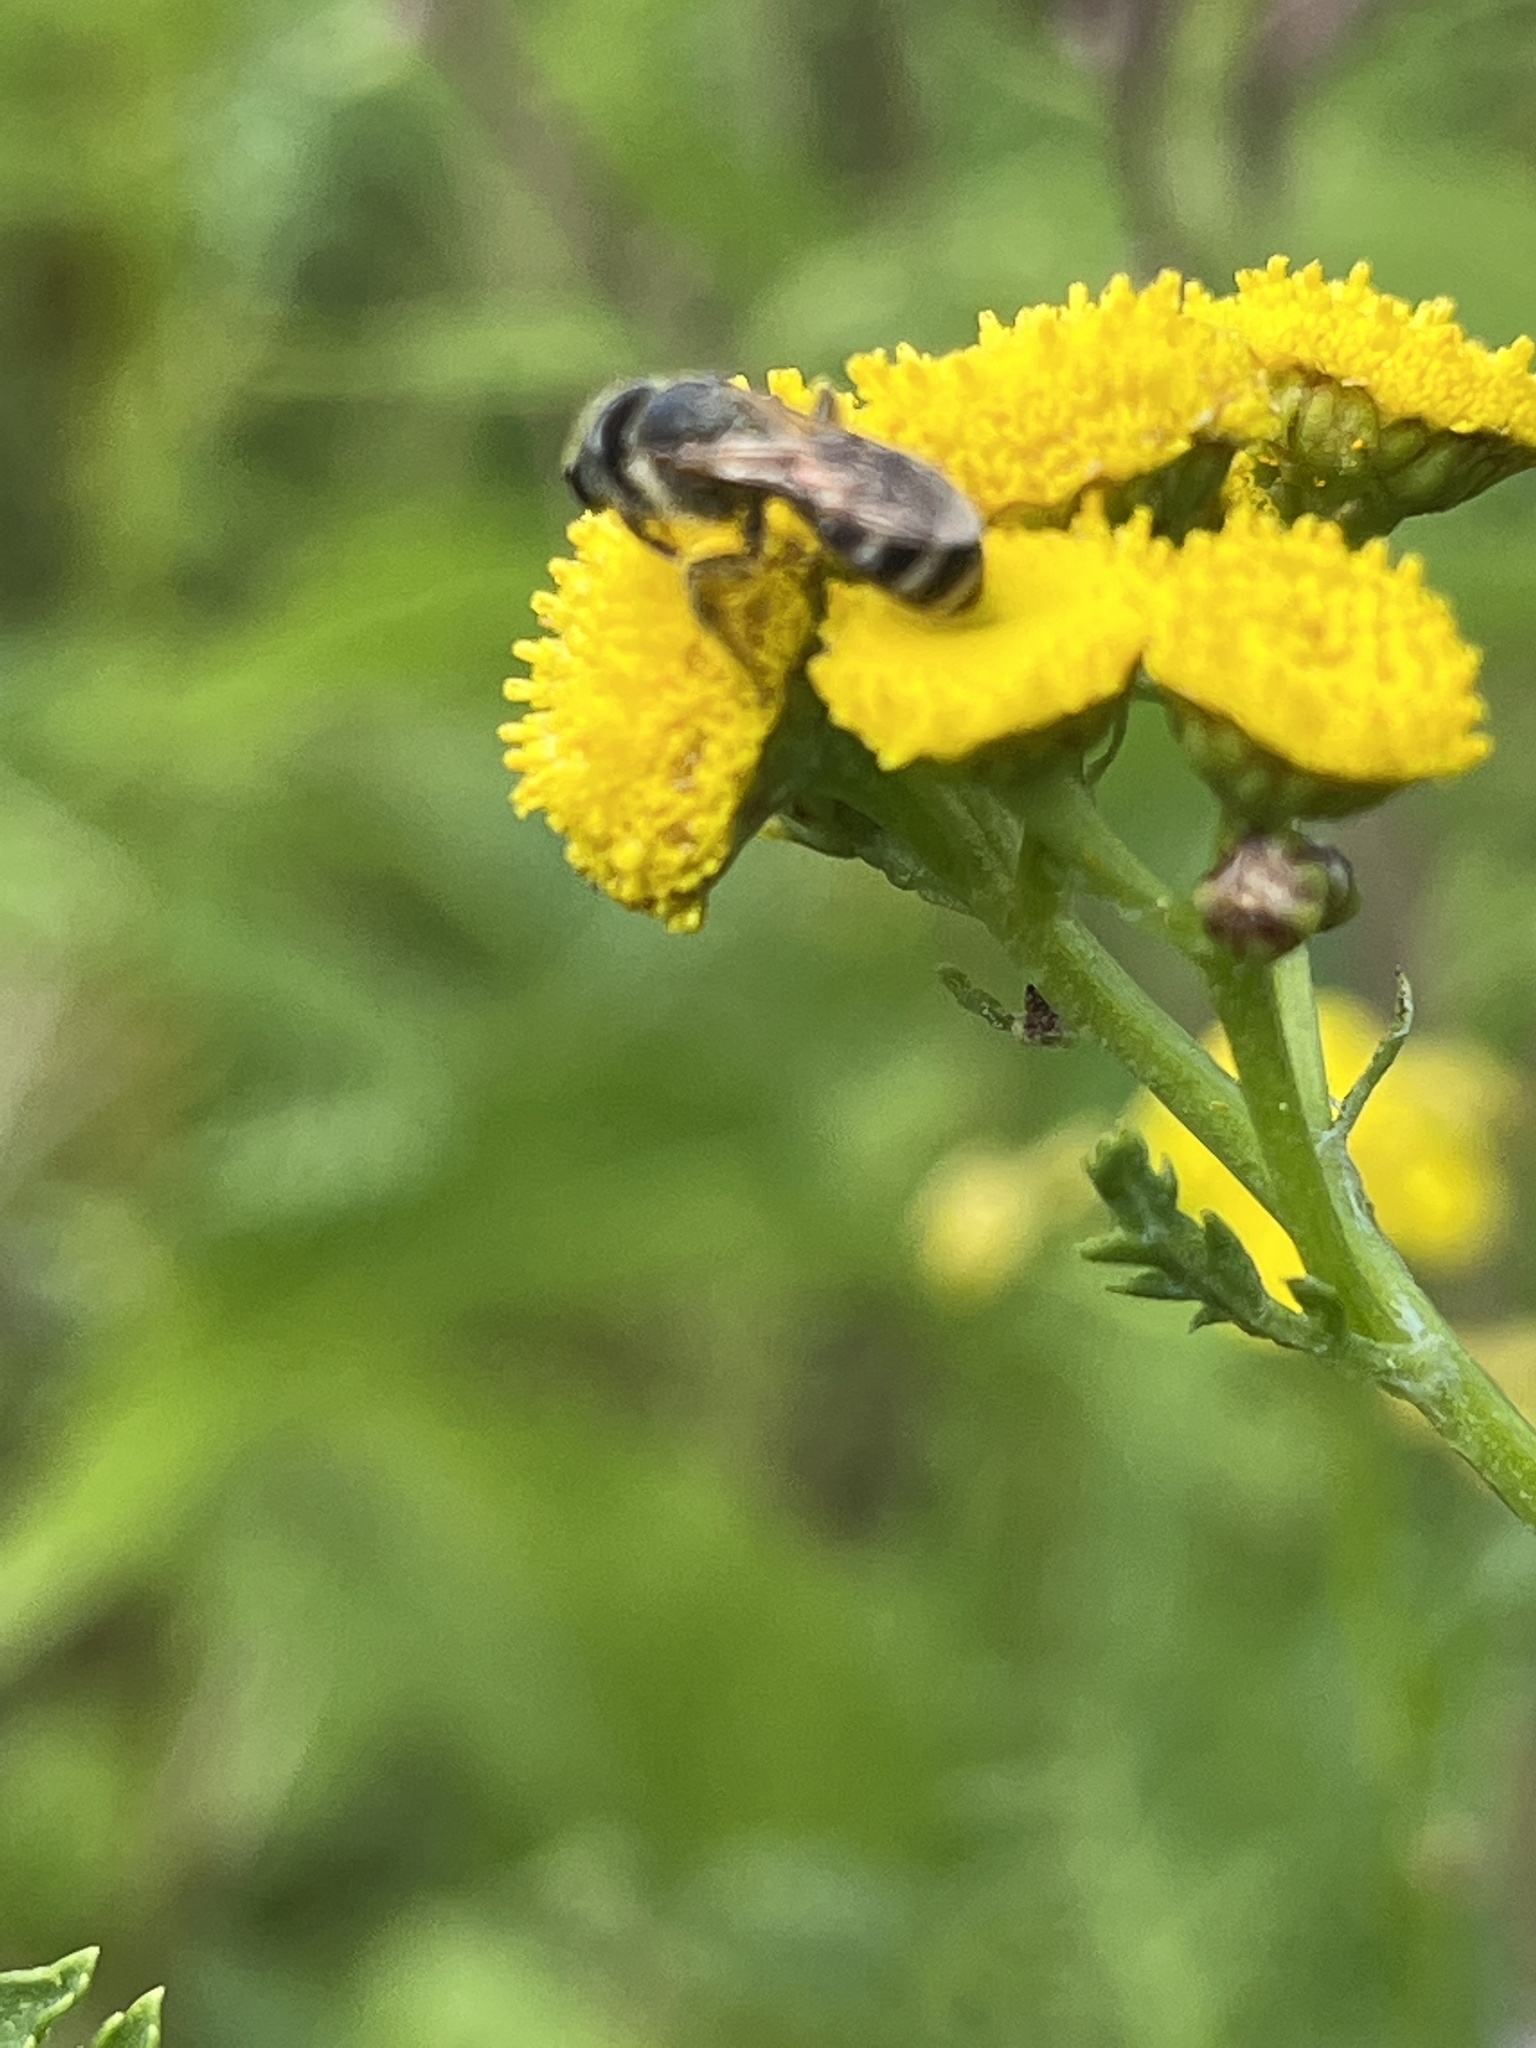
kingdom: Animalia
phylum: Arthropoda
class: Insecta
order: Hymenoptera
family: Halictidae
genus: Halictus
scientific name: Halictus ligatus
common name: Ligated furrow bee
